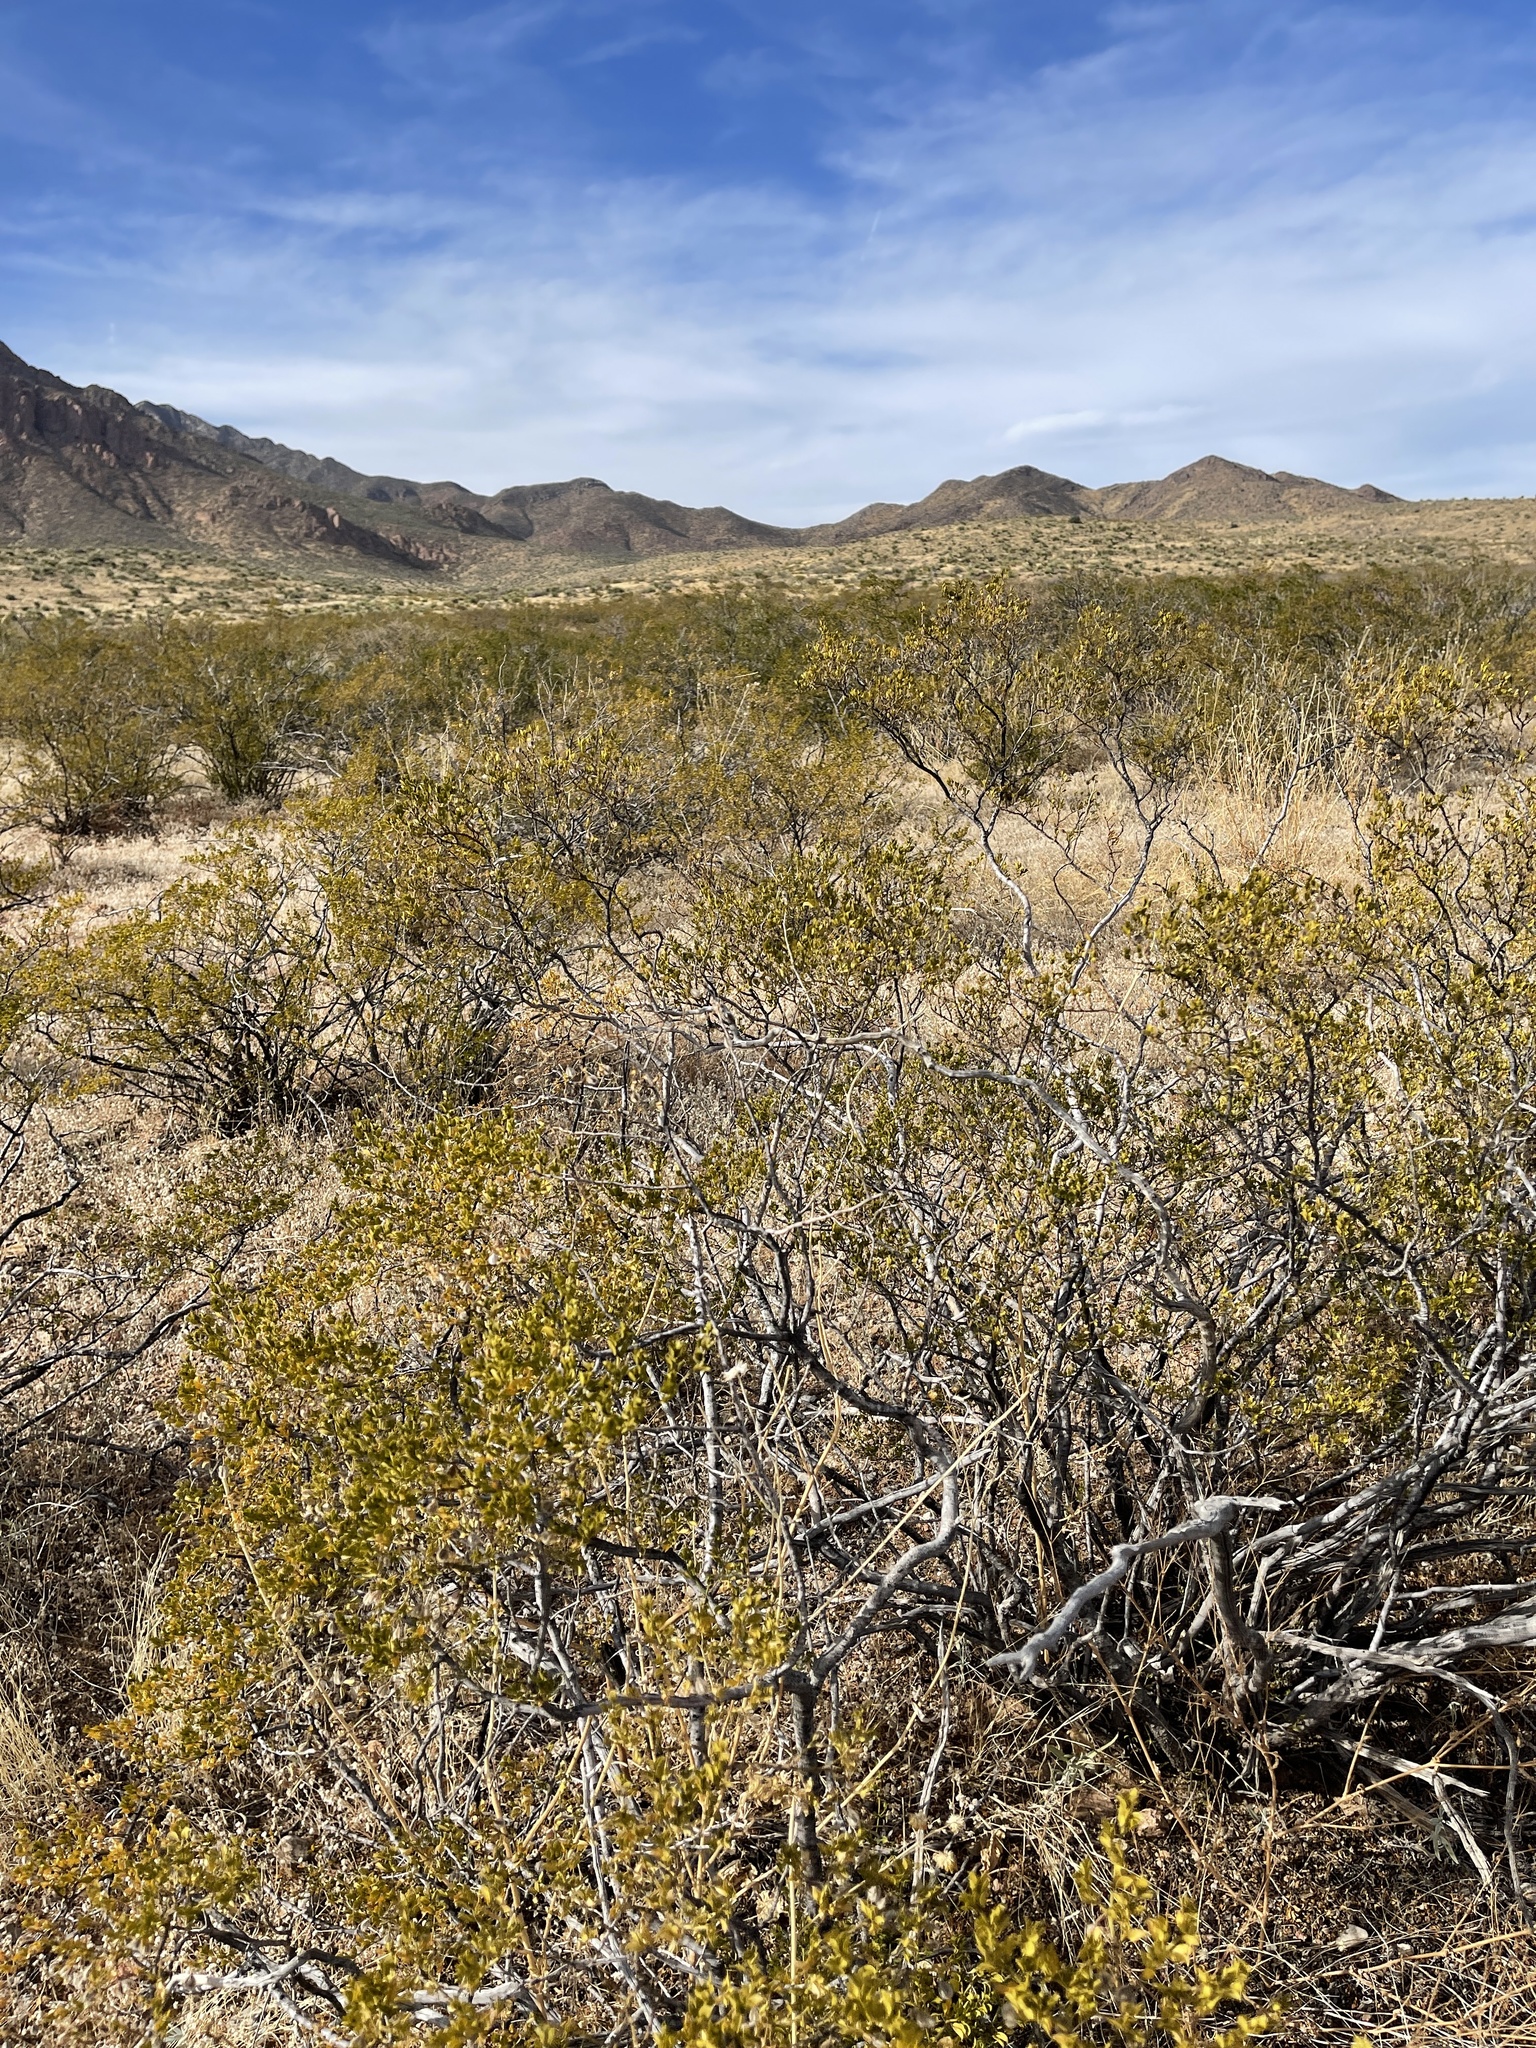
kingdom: Plantae
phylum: Tracheophyta
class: Magnoliopsida
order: Zygophyllales
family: Zygophyllaceae
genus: Larrea
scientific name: Larrea tridentata
